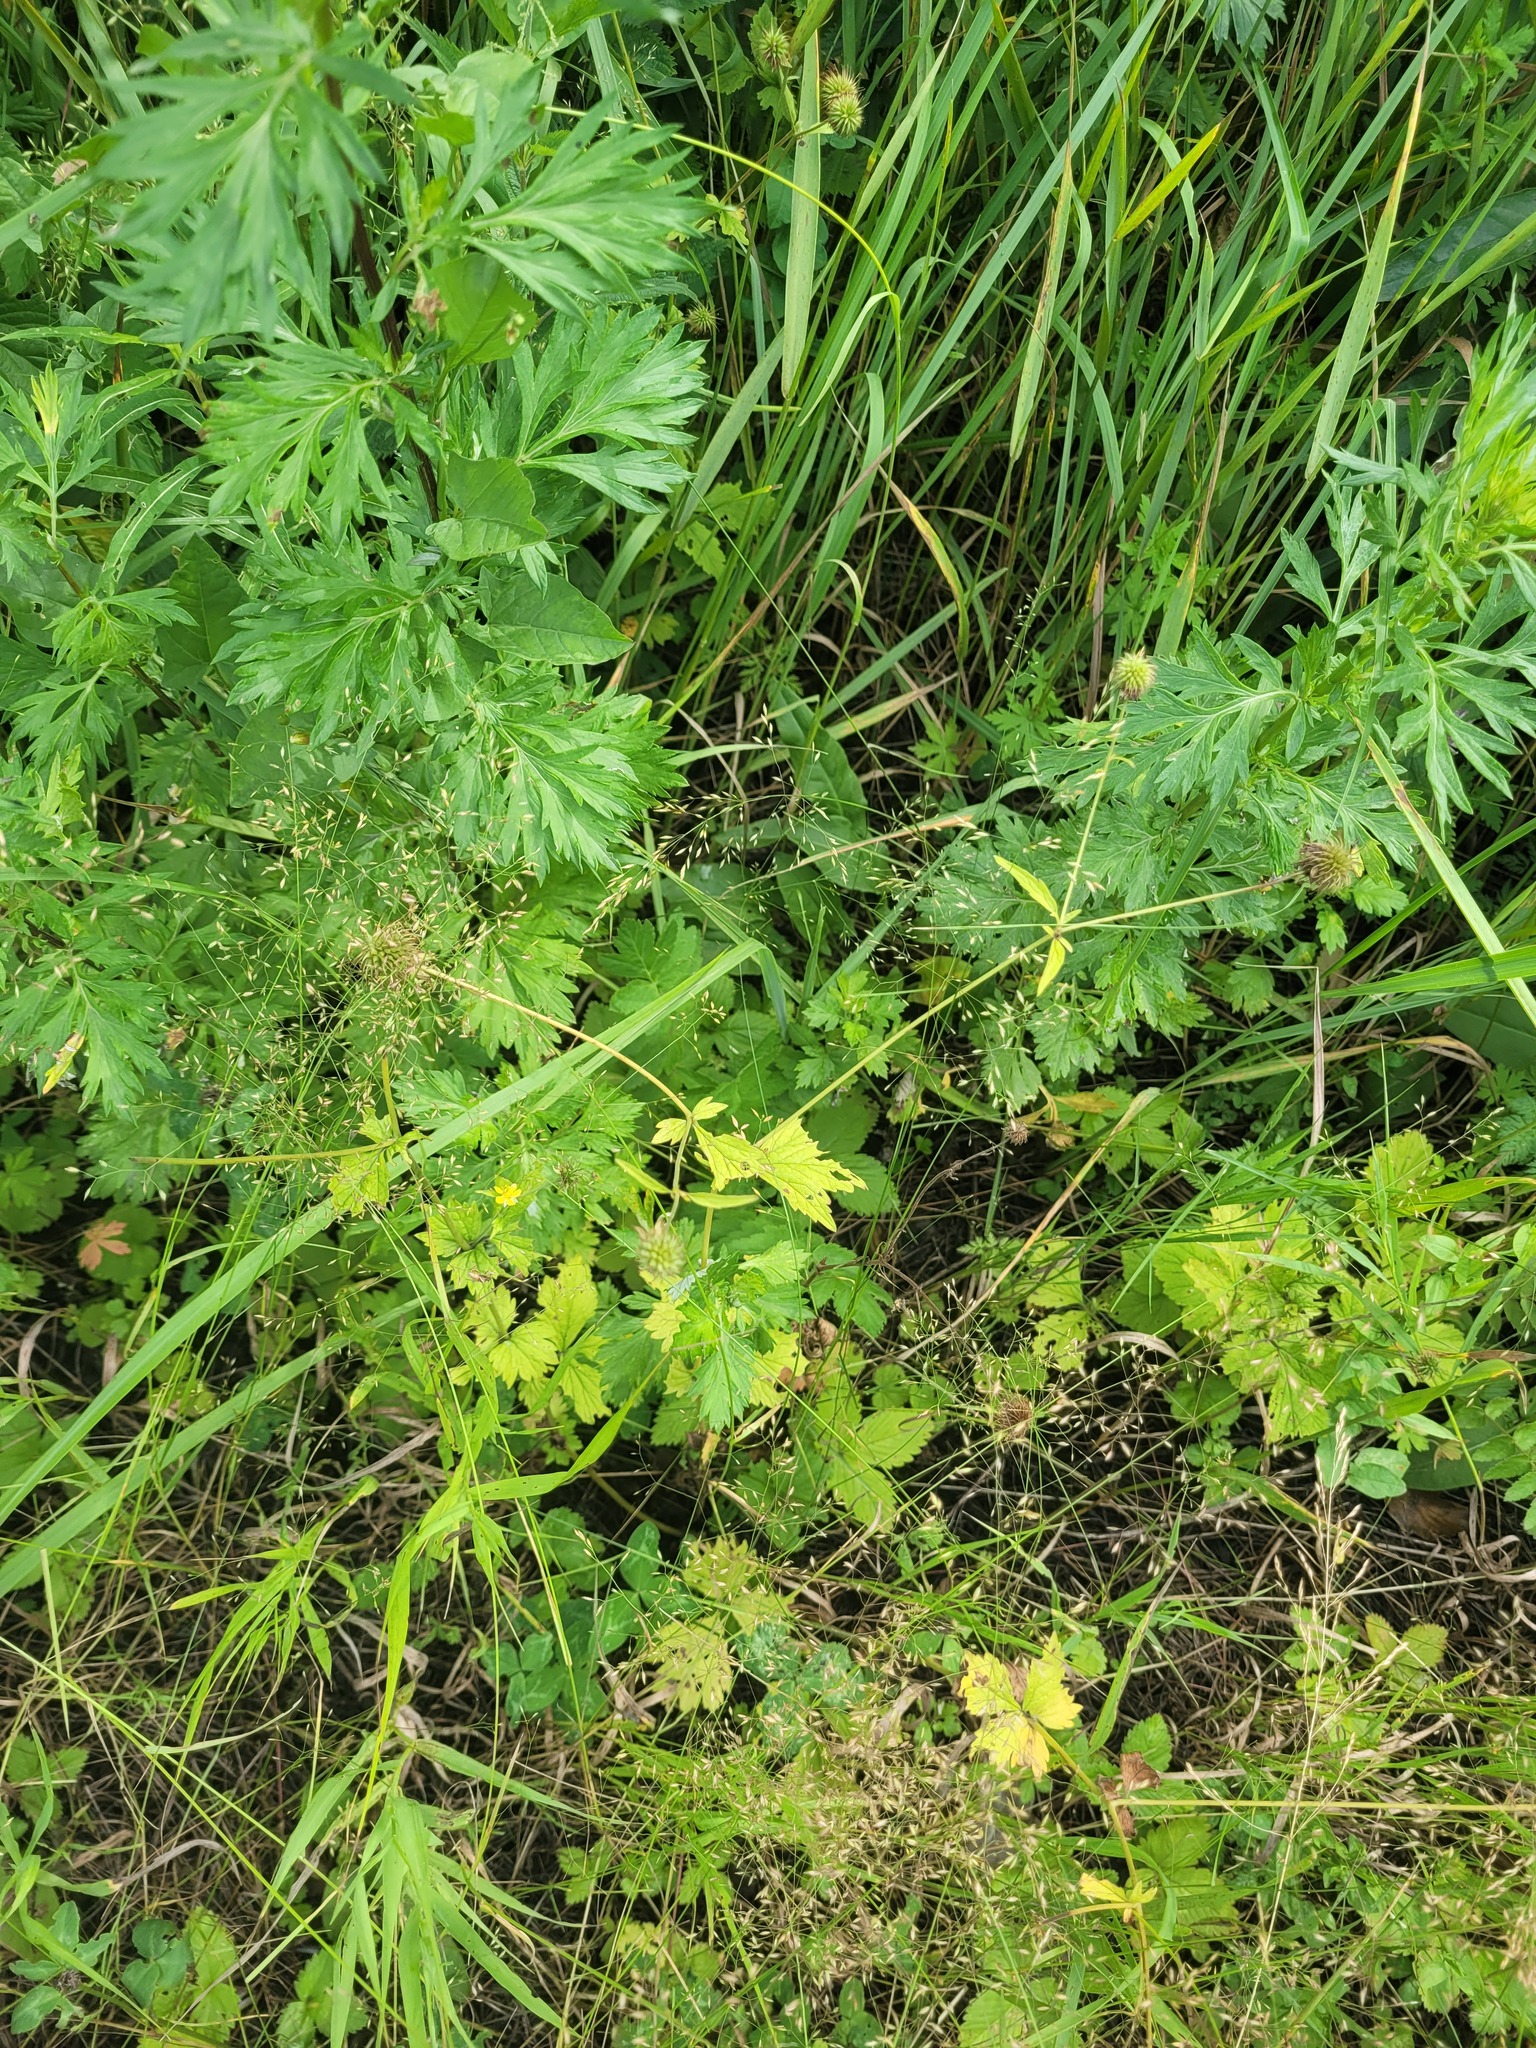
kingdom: Plantae
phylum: Tracheophyta
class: Magnoliopsida
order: Rosales
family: Rosaceae
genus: Geum
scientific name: Geum urbanum
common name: Wood avens
